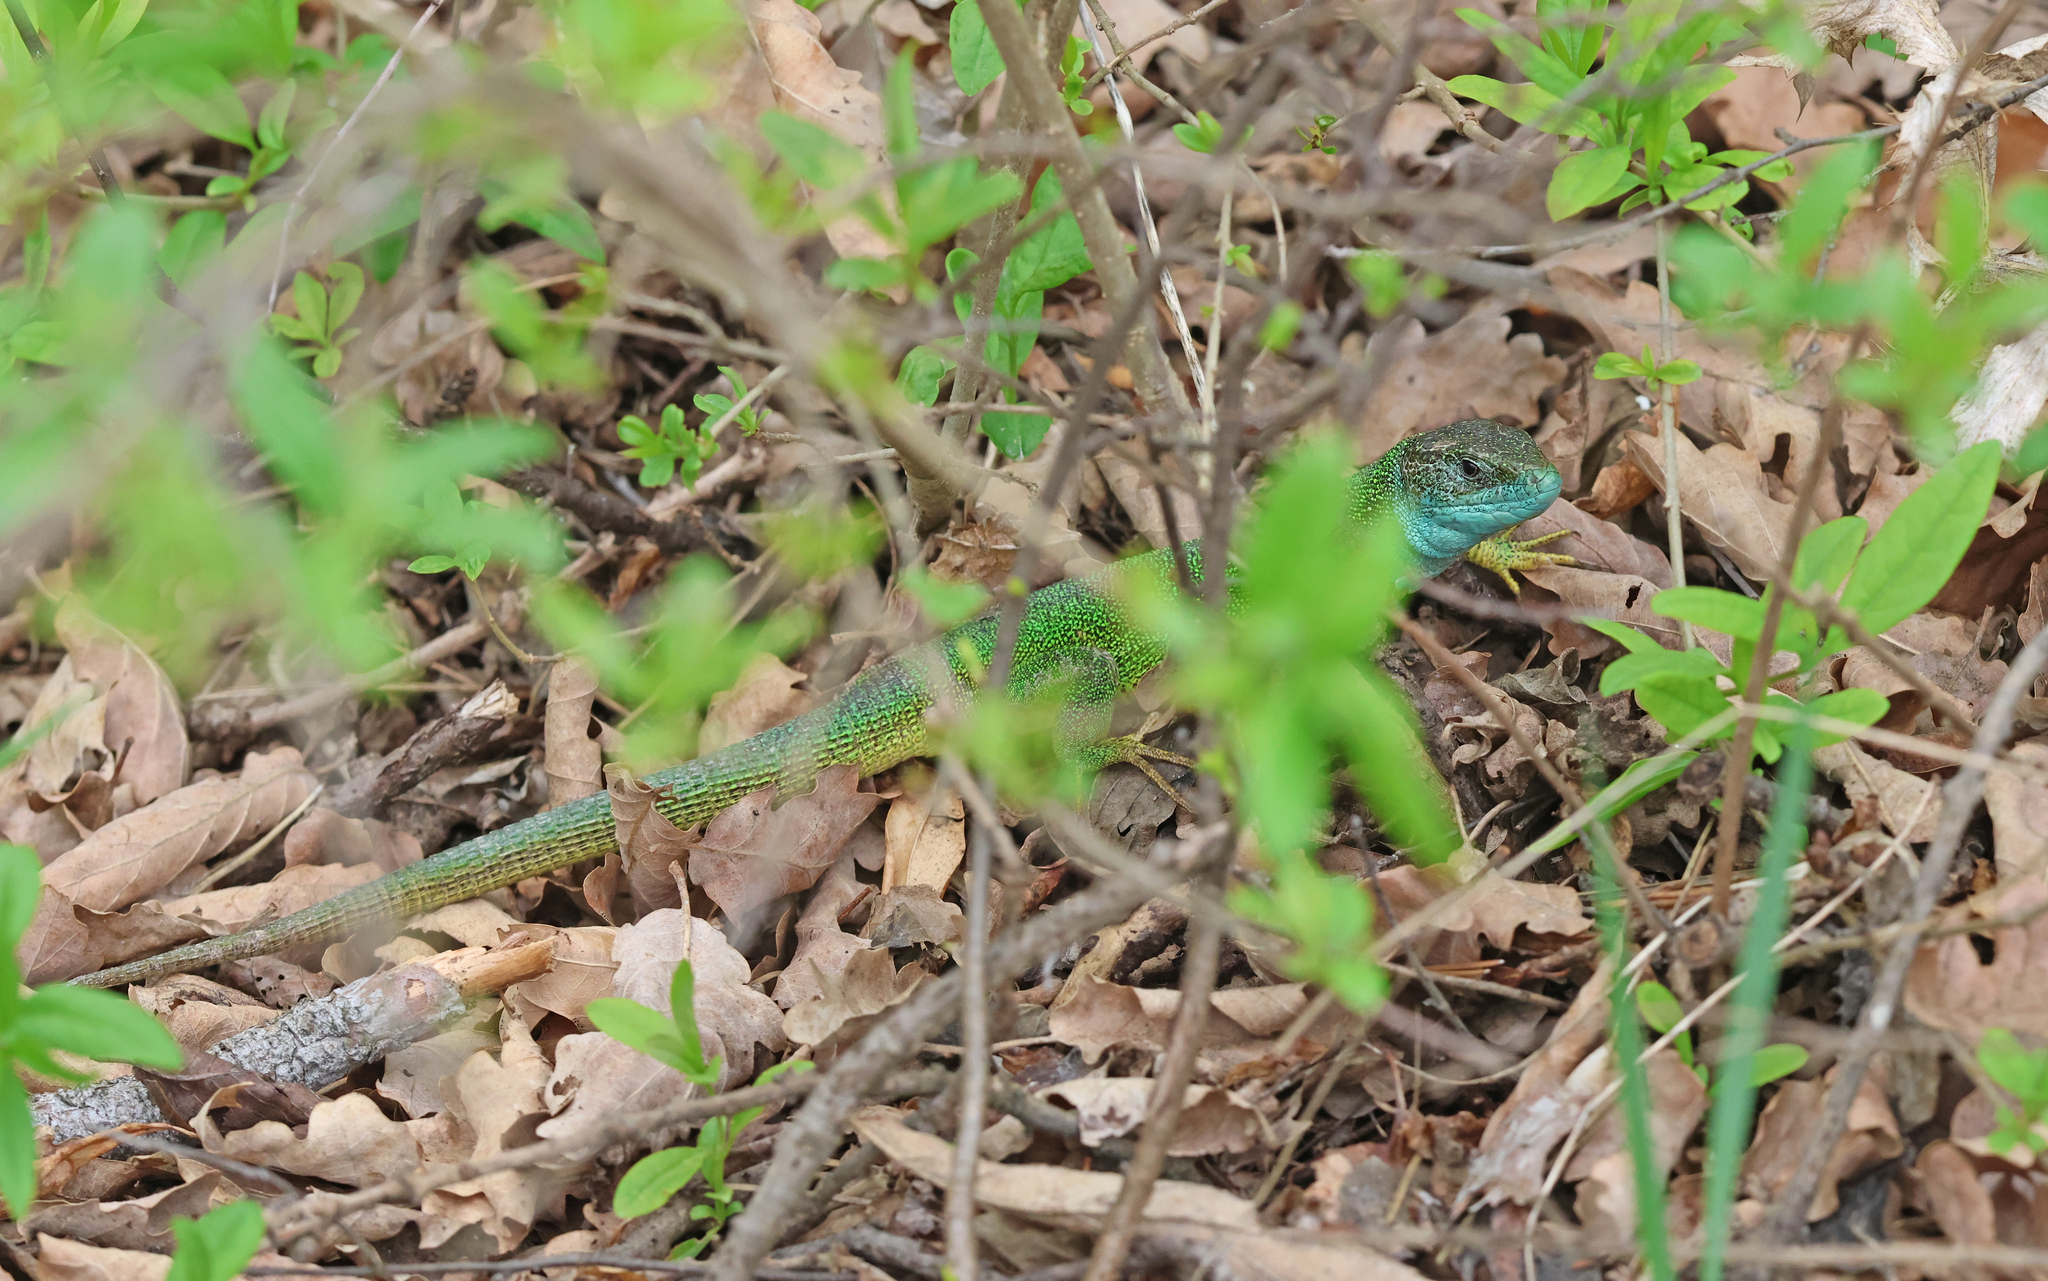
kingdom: Animalia
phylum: Chordata
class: Squamata
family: Lacertidae
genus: Lacerta
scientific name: Lacerta viridis
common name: European green lizard
